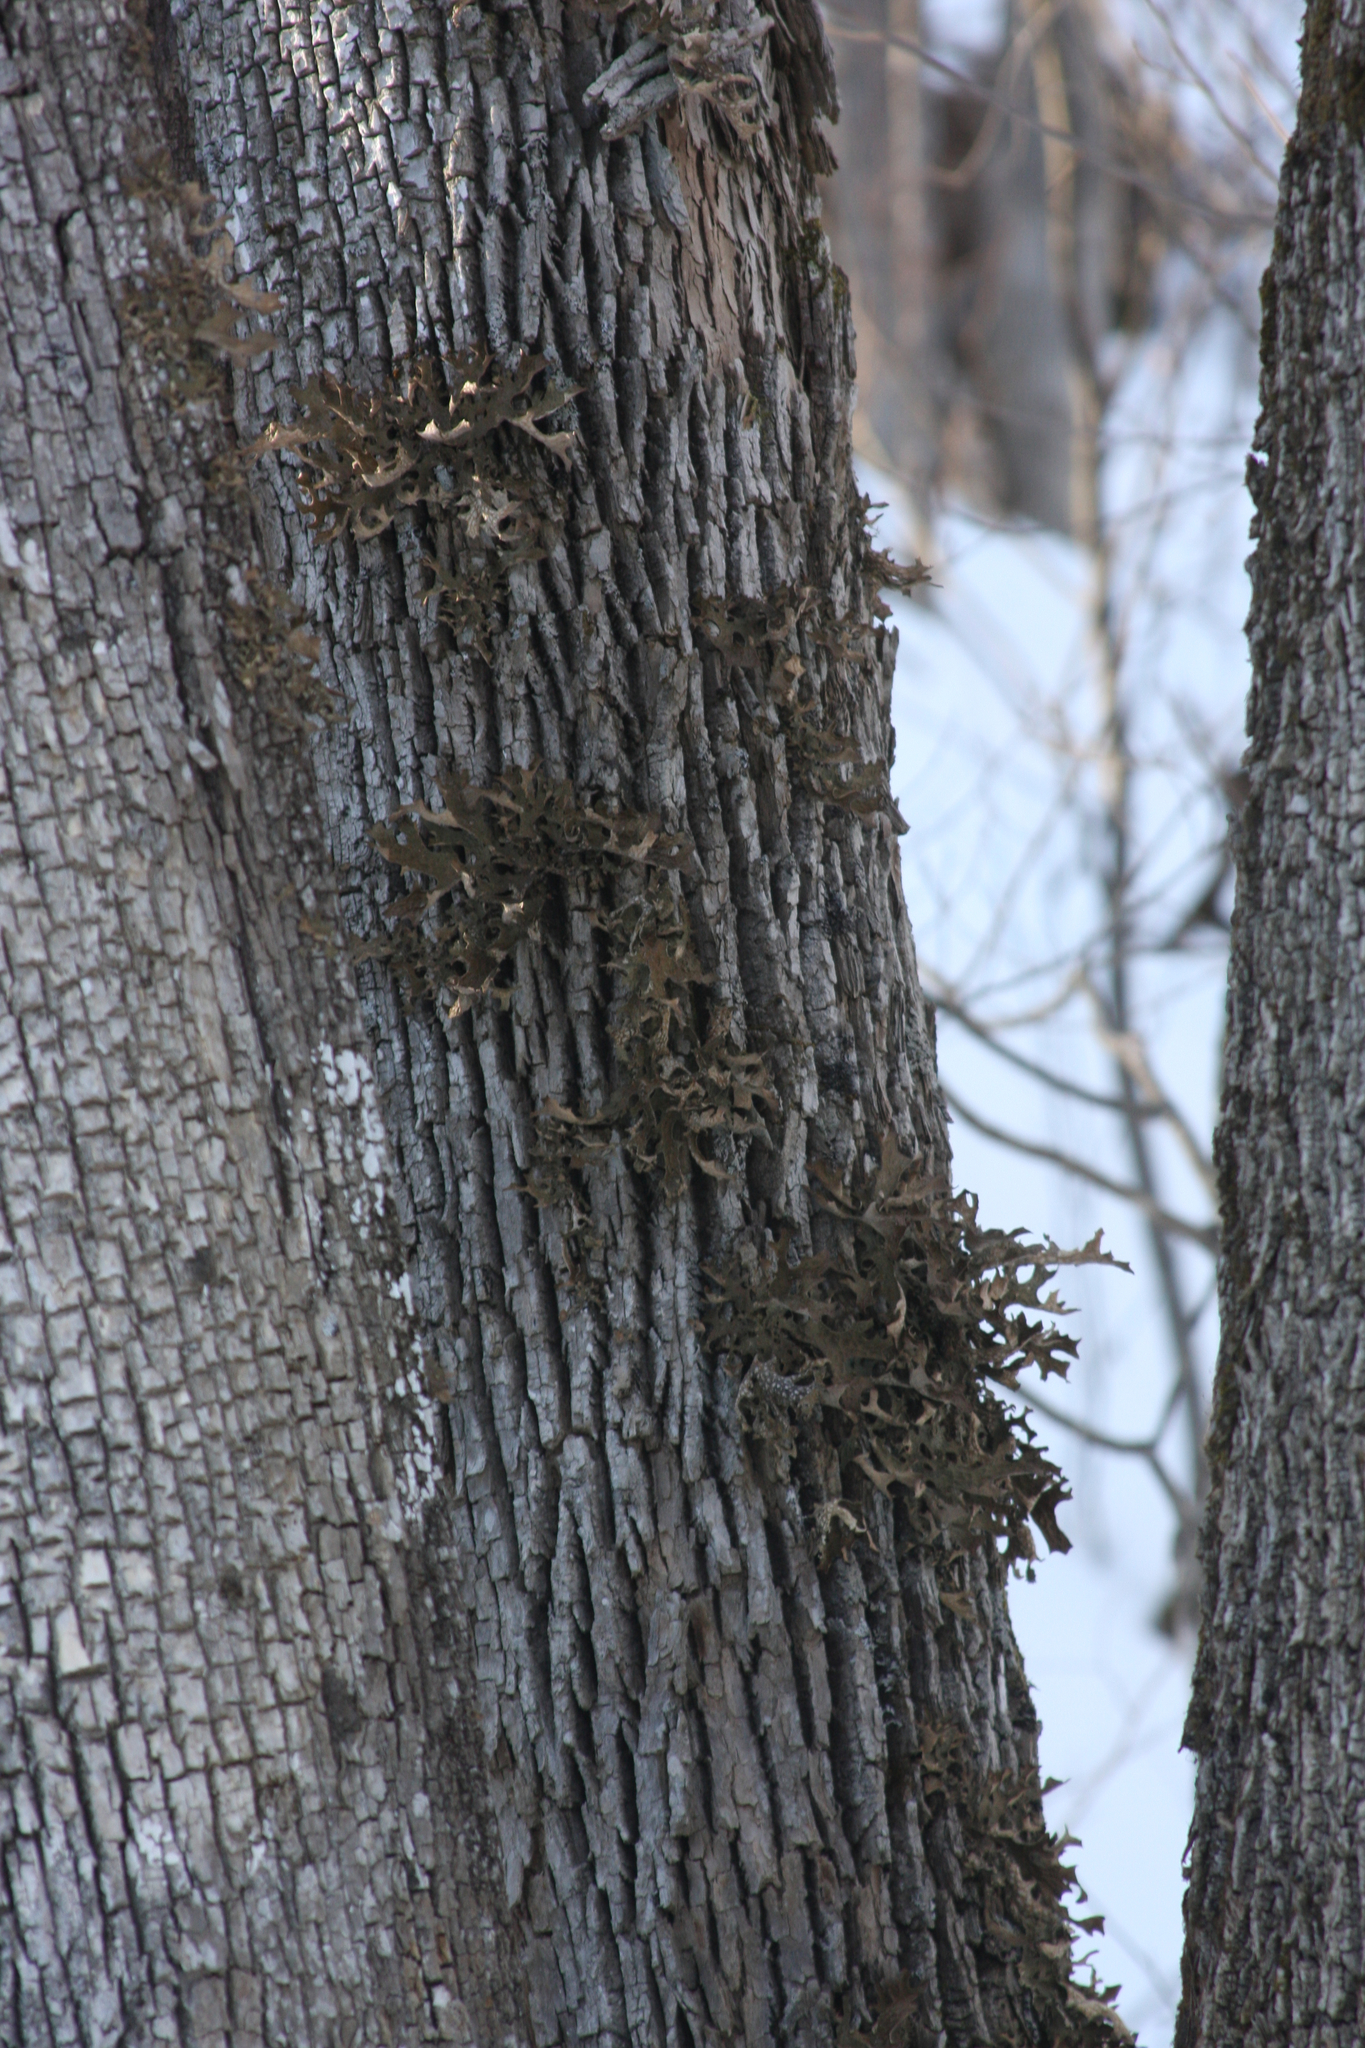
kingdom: Fungi
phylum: Ascomycota
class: Lecanoromycetes
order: Peltigerales
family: Lobariaceae
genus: Lobaria
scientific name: Lobaria pulmonaria
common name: Lungwort
